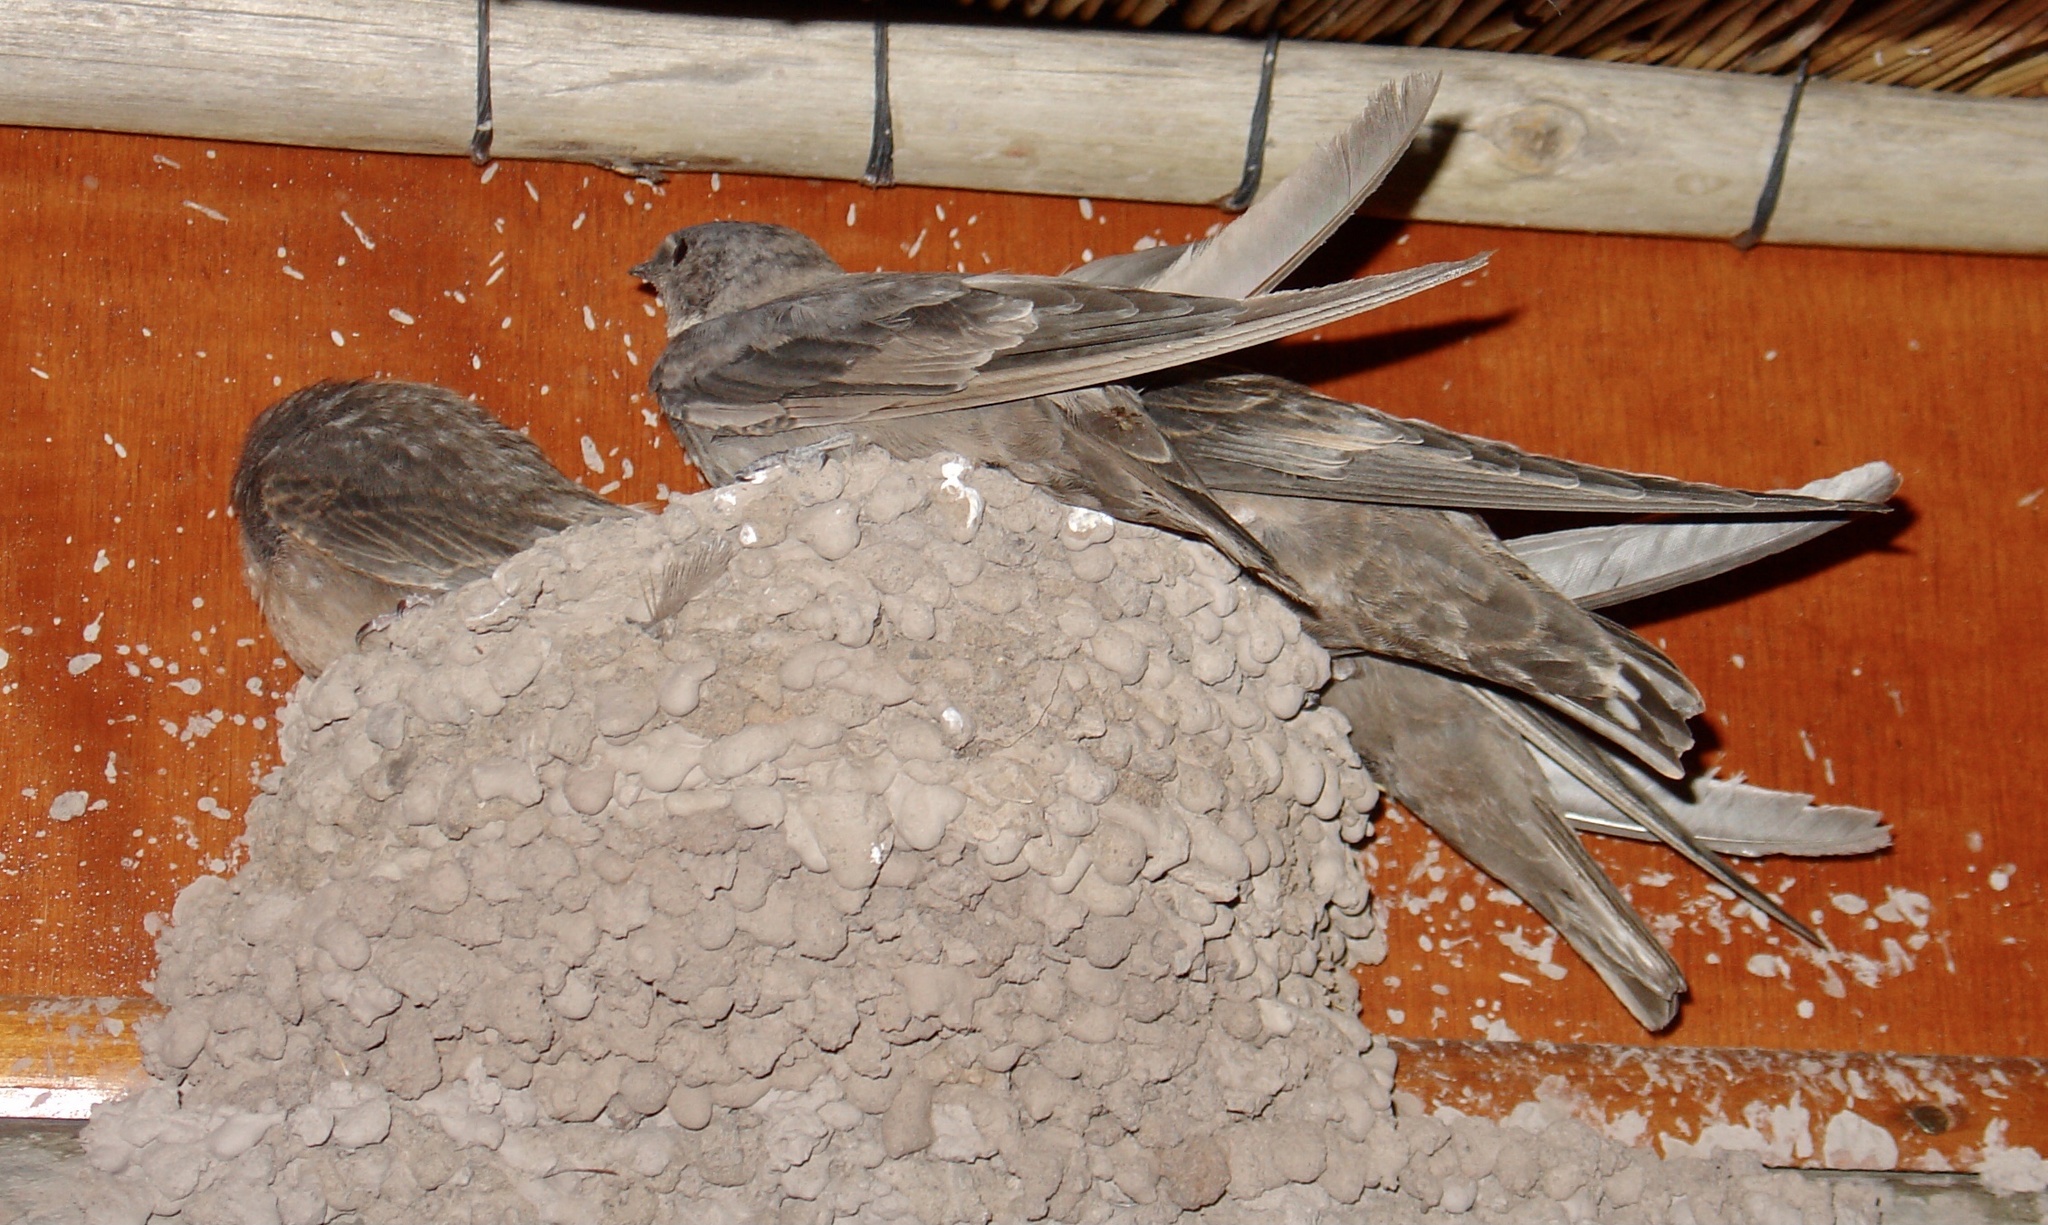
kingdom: Animalia
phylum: Chordata
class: Aves
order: Passeriformes
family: Hirundinidae
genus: Ptyonoprogne
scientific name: Ptyonoprogne fuligula
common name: Rock martin
